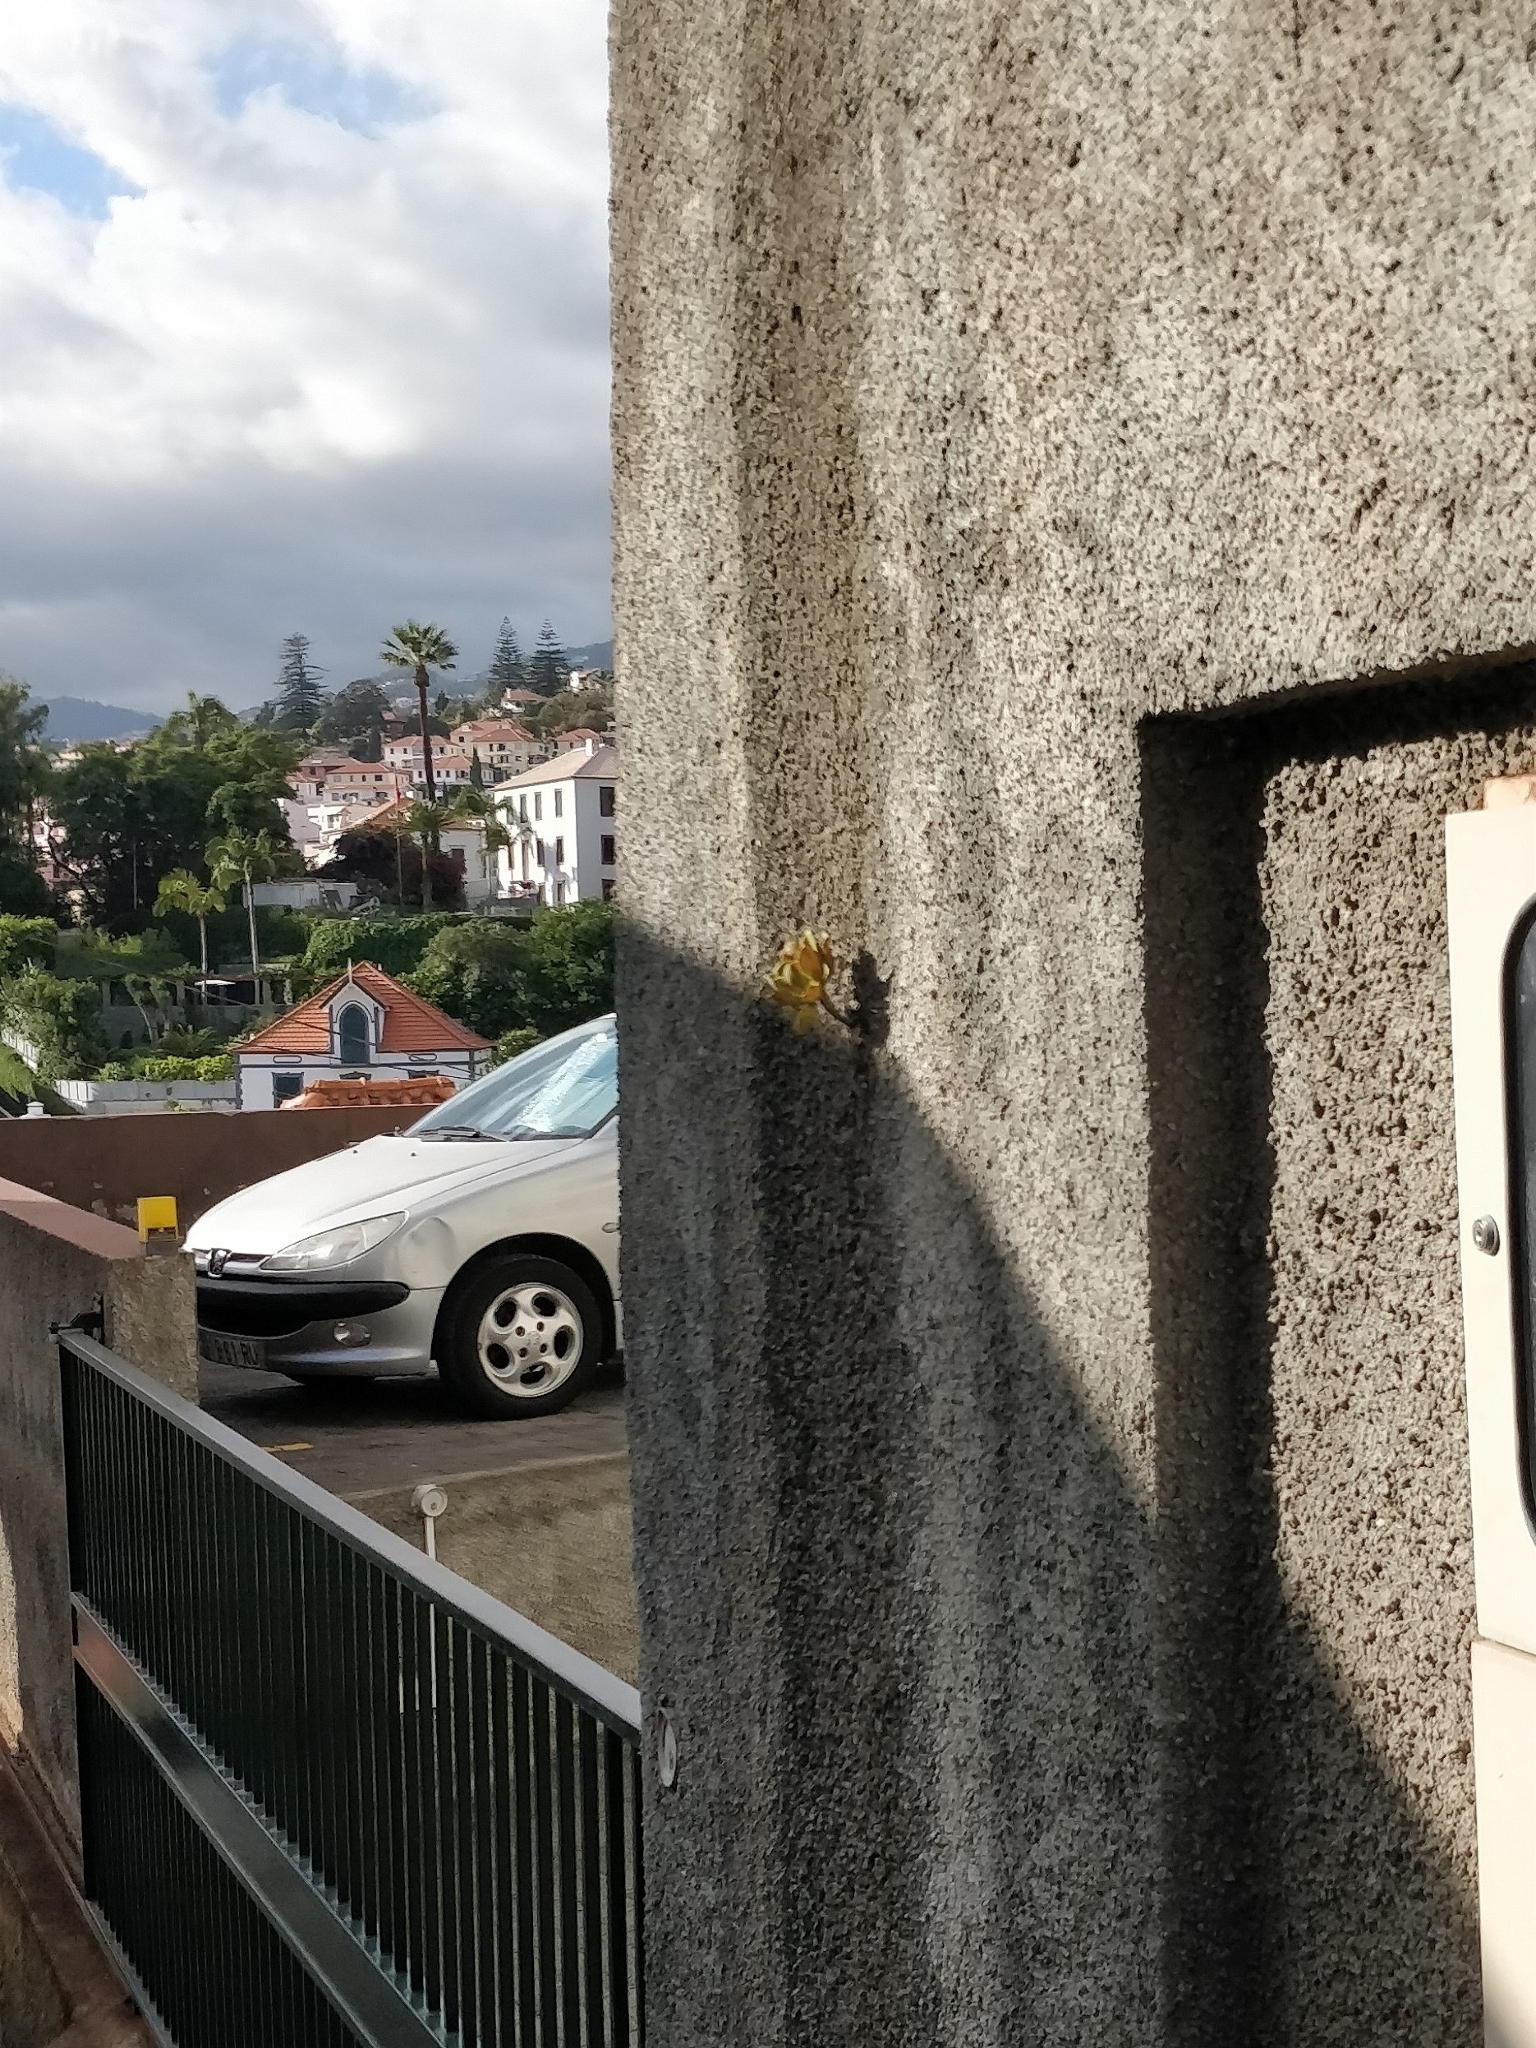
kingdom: Plantae
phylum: Tracheophyta
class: Magnoliopsida
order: Saxifragales
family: Crassulaceae
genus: Aeonium
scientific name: Aeonium glutinosum
